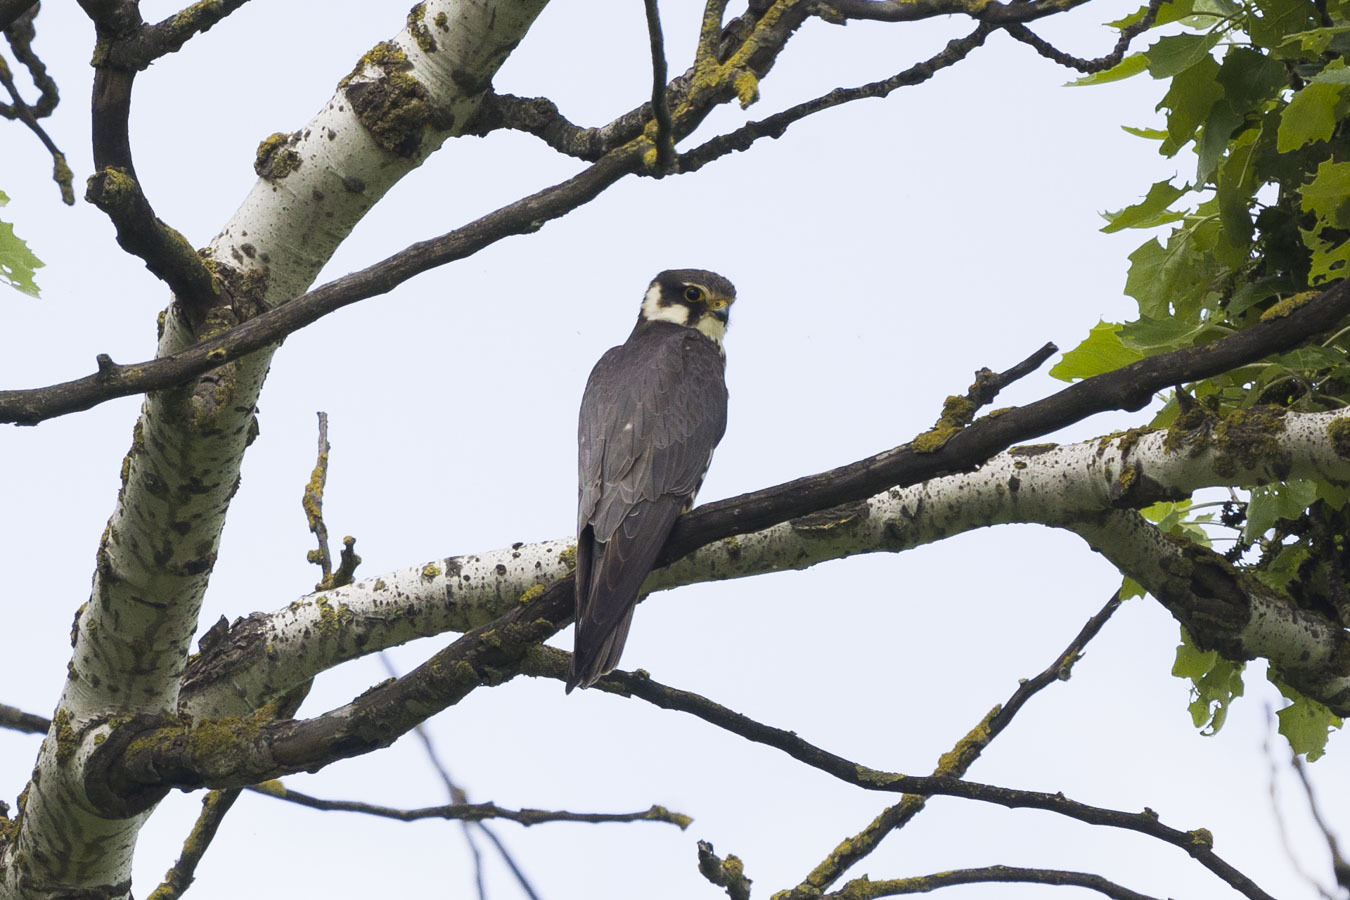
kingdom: Animalia
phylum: Chordata
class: Aves
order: Falconiformes
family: Falconidae
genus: Falco
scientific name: Falco subbuteo
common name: Eurasian hobby
